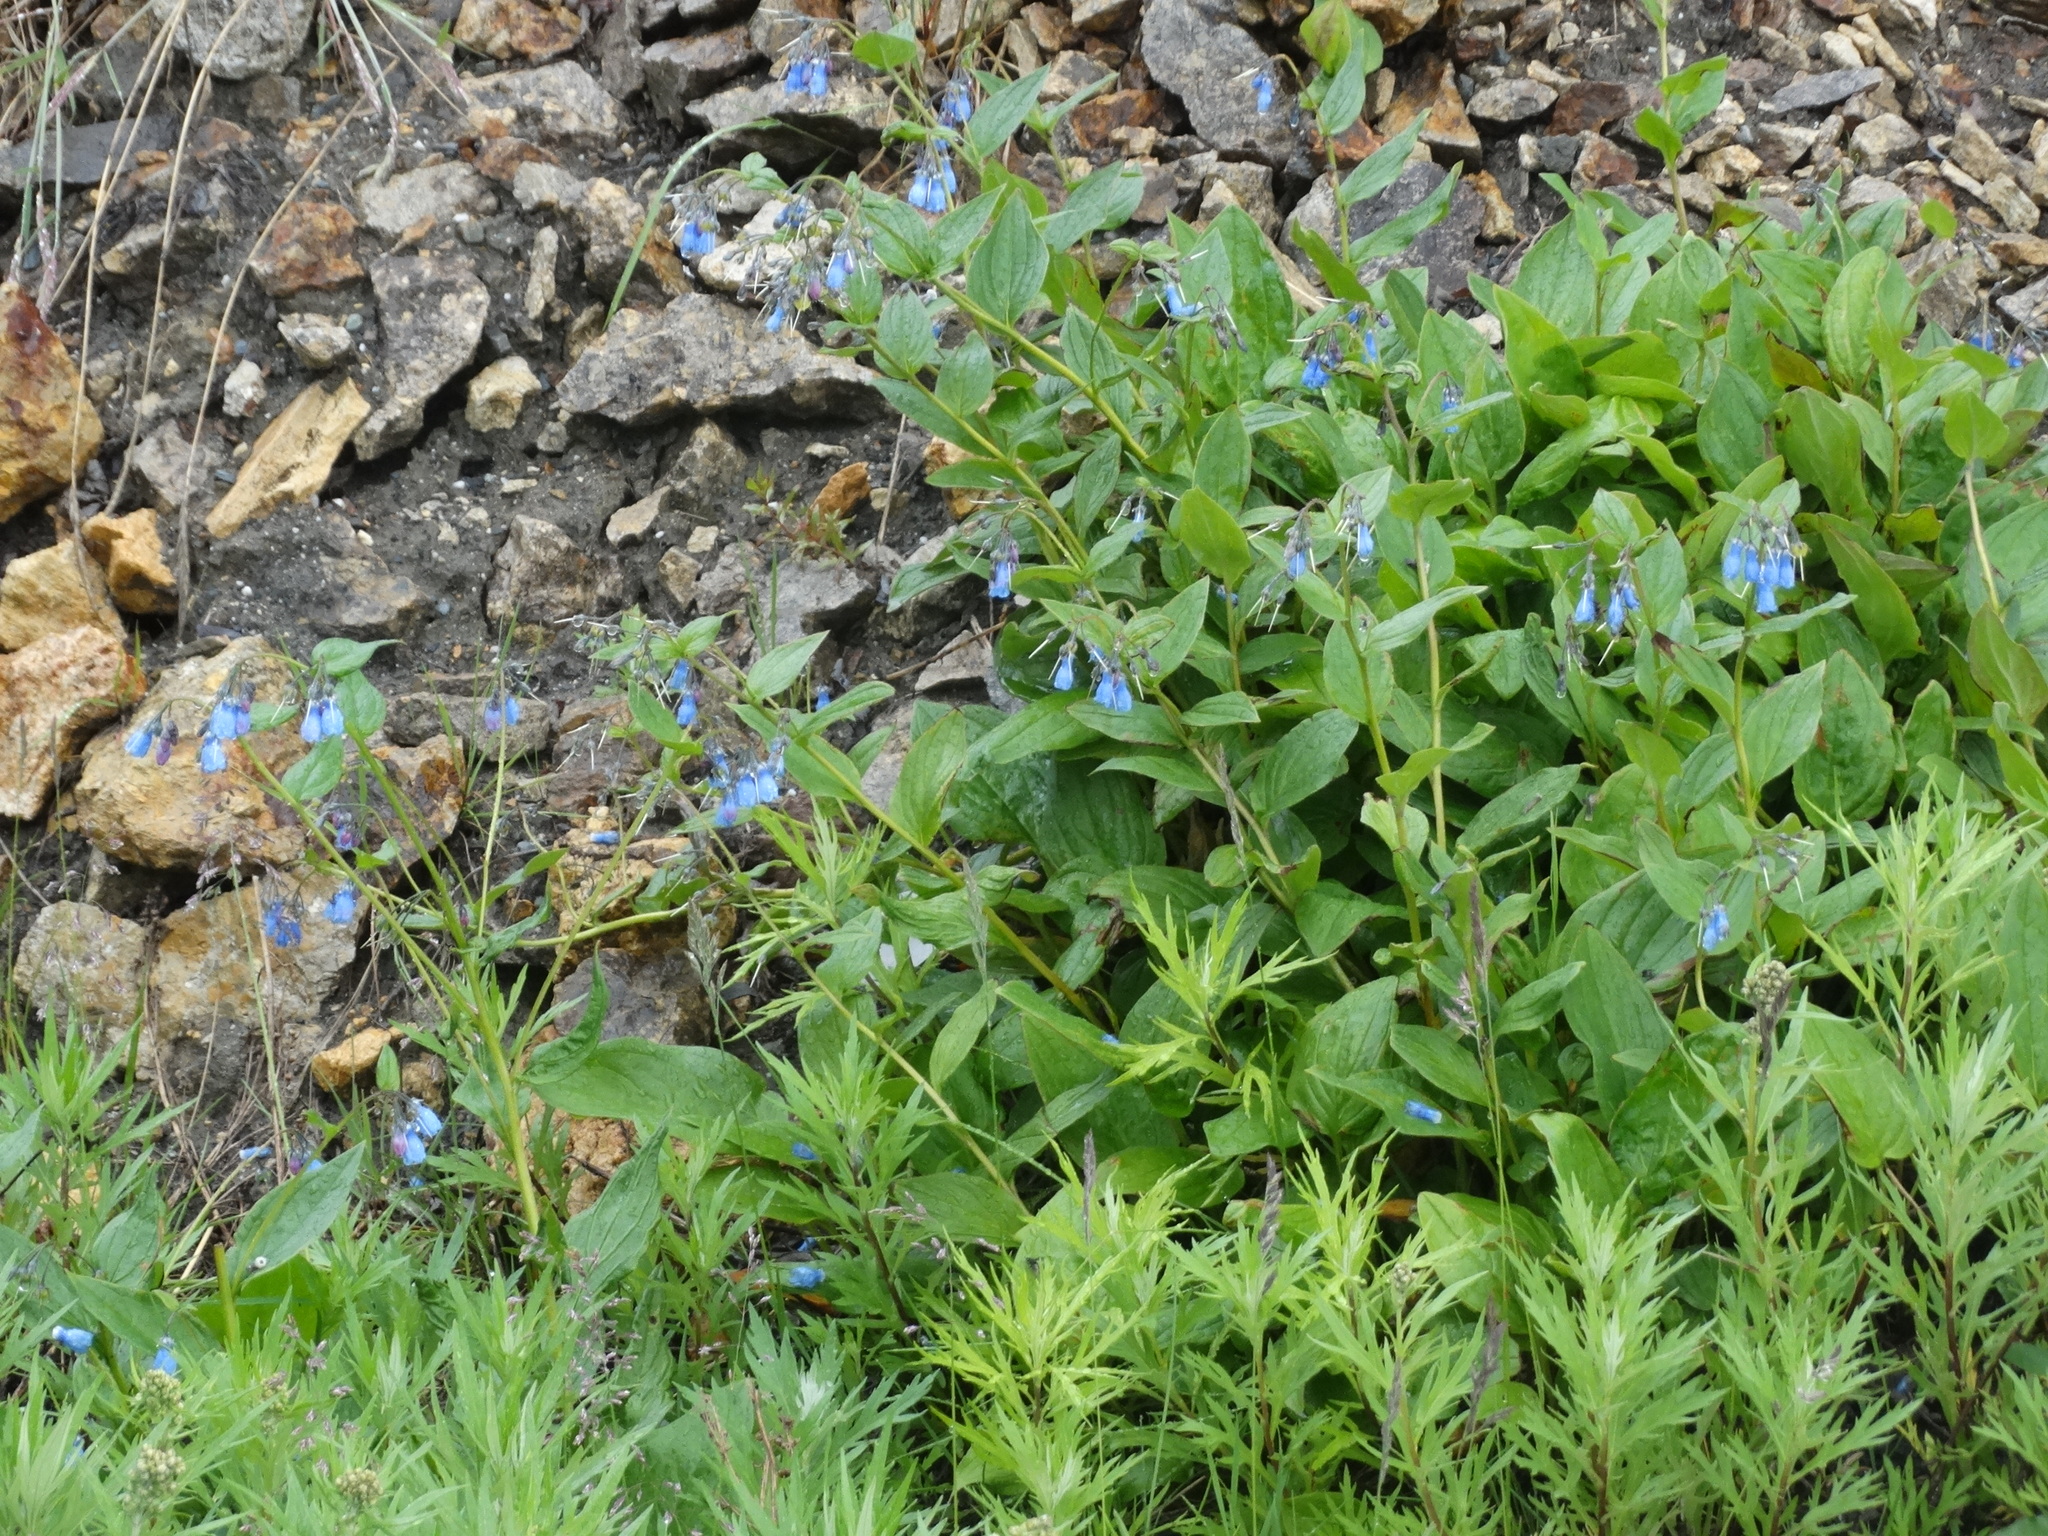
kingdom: Plantae
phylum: Tracheophyta
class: Magnoliopsida
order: Boraginales
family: Boraginaceae
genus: Mertensia
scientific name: Mertensia paniculata
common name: Panicled bluebells
